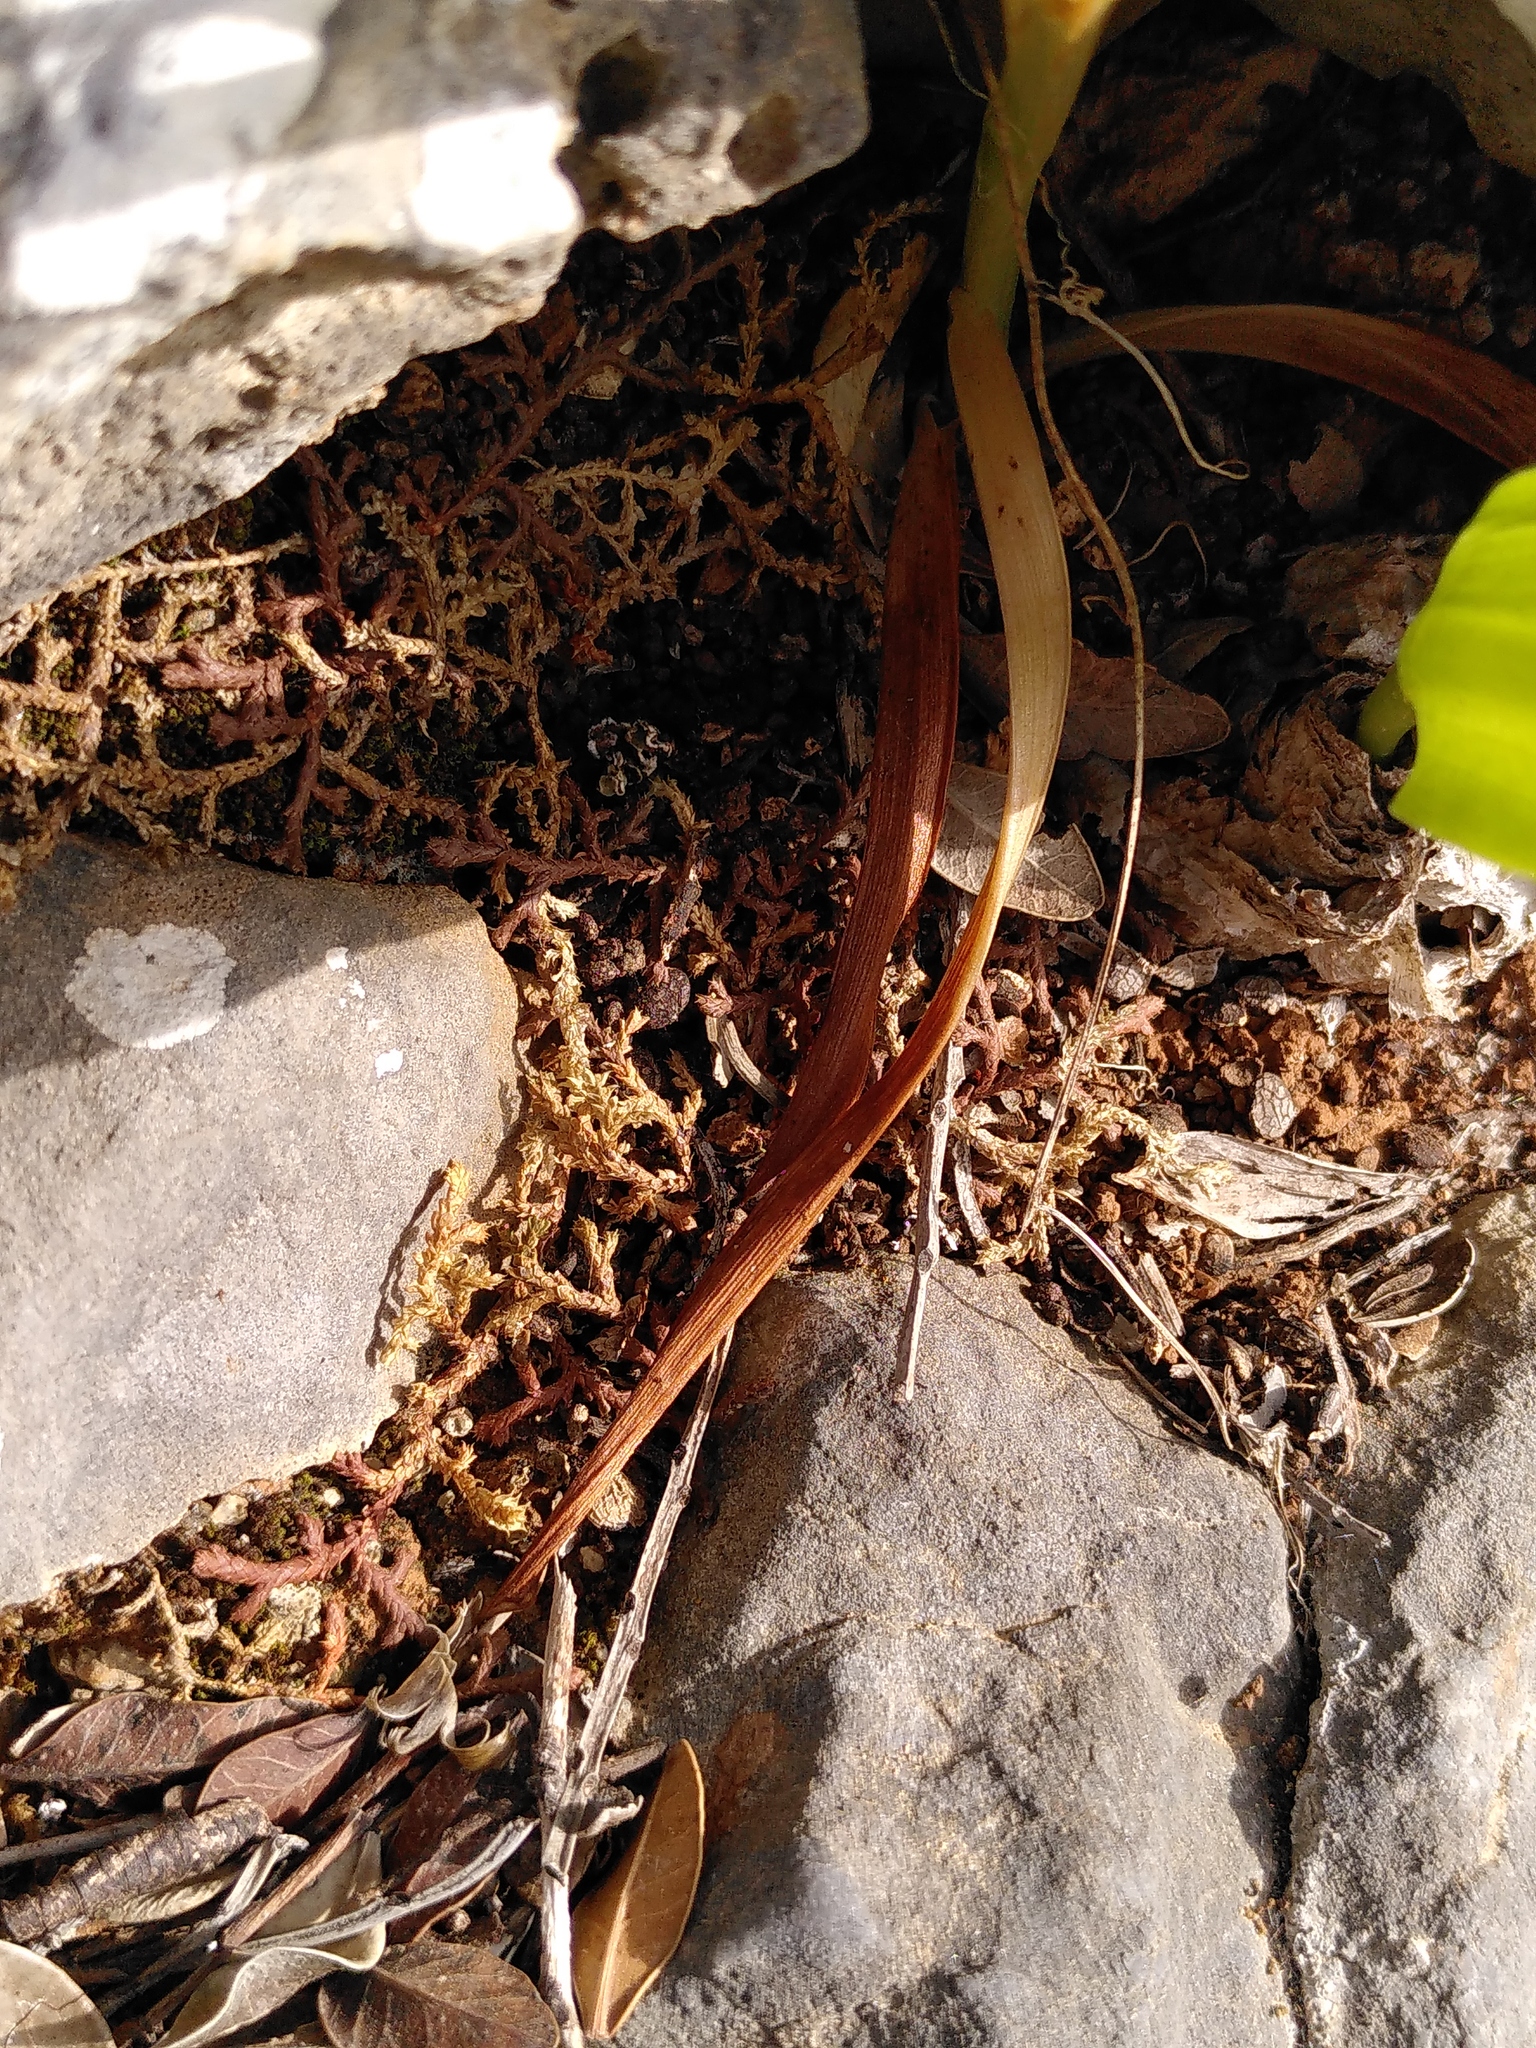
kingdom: Plantae
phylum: Tracheophyta
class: Liliopsida
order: Asparagales
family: Orchidaceae
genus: Anacamptis
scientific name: Anacamptis pyramidalis
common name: Pyramidal orchid
